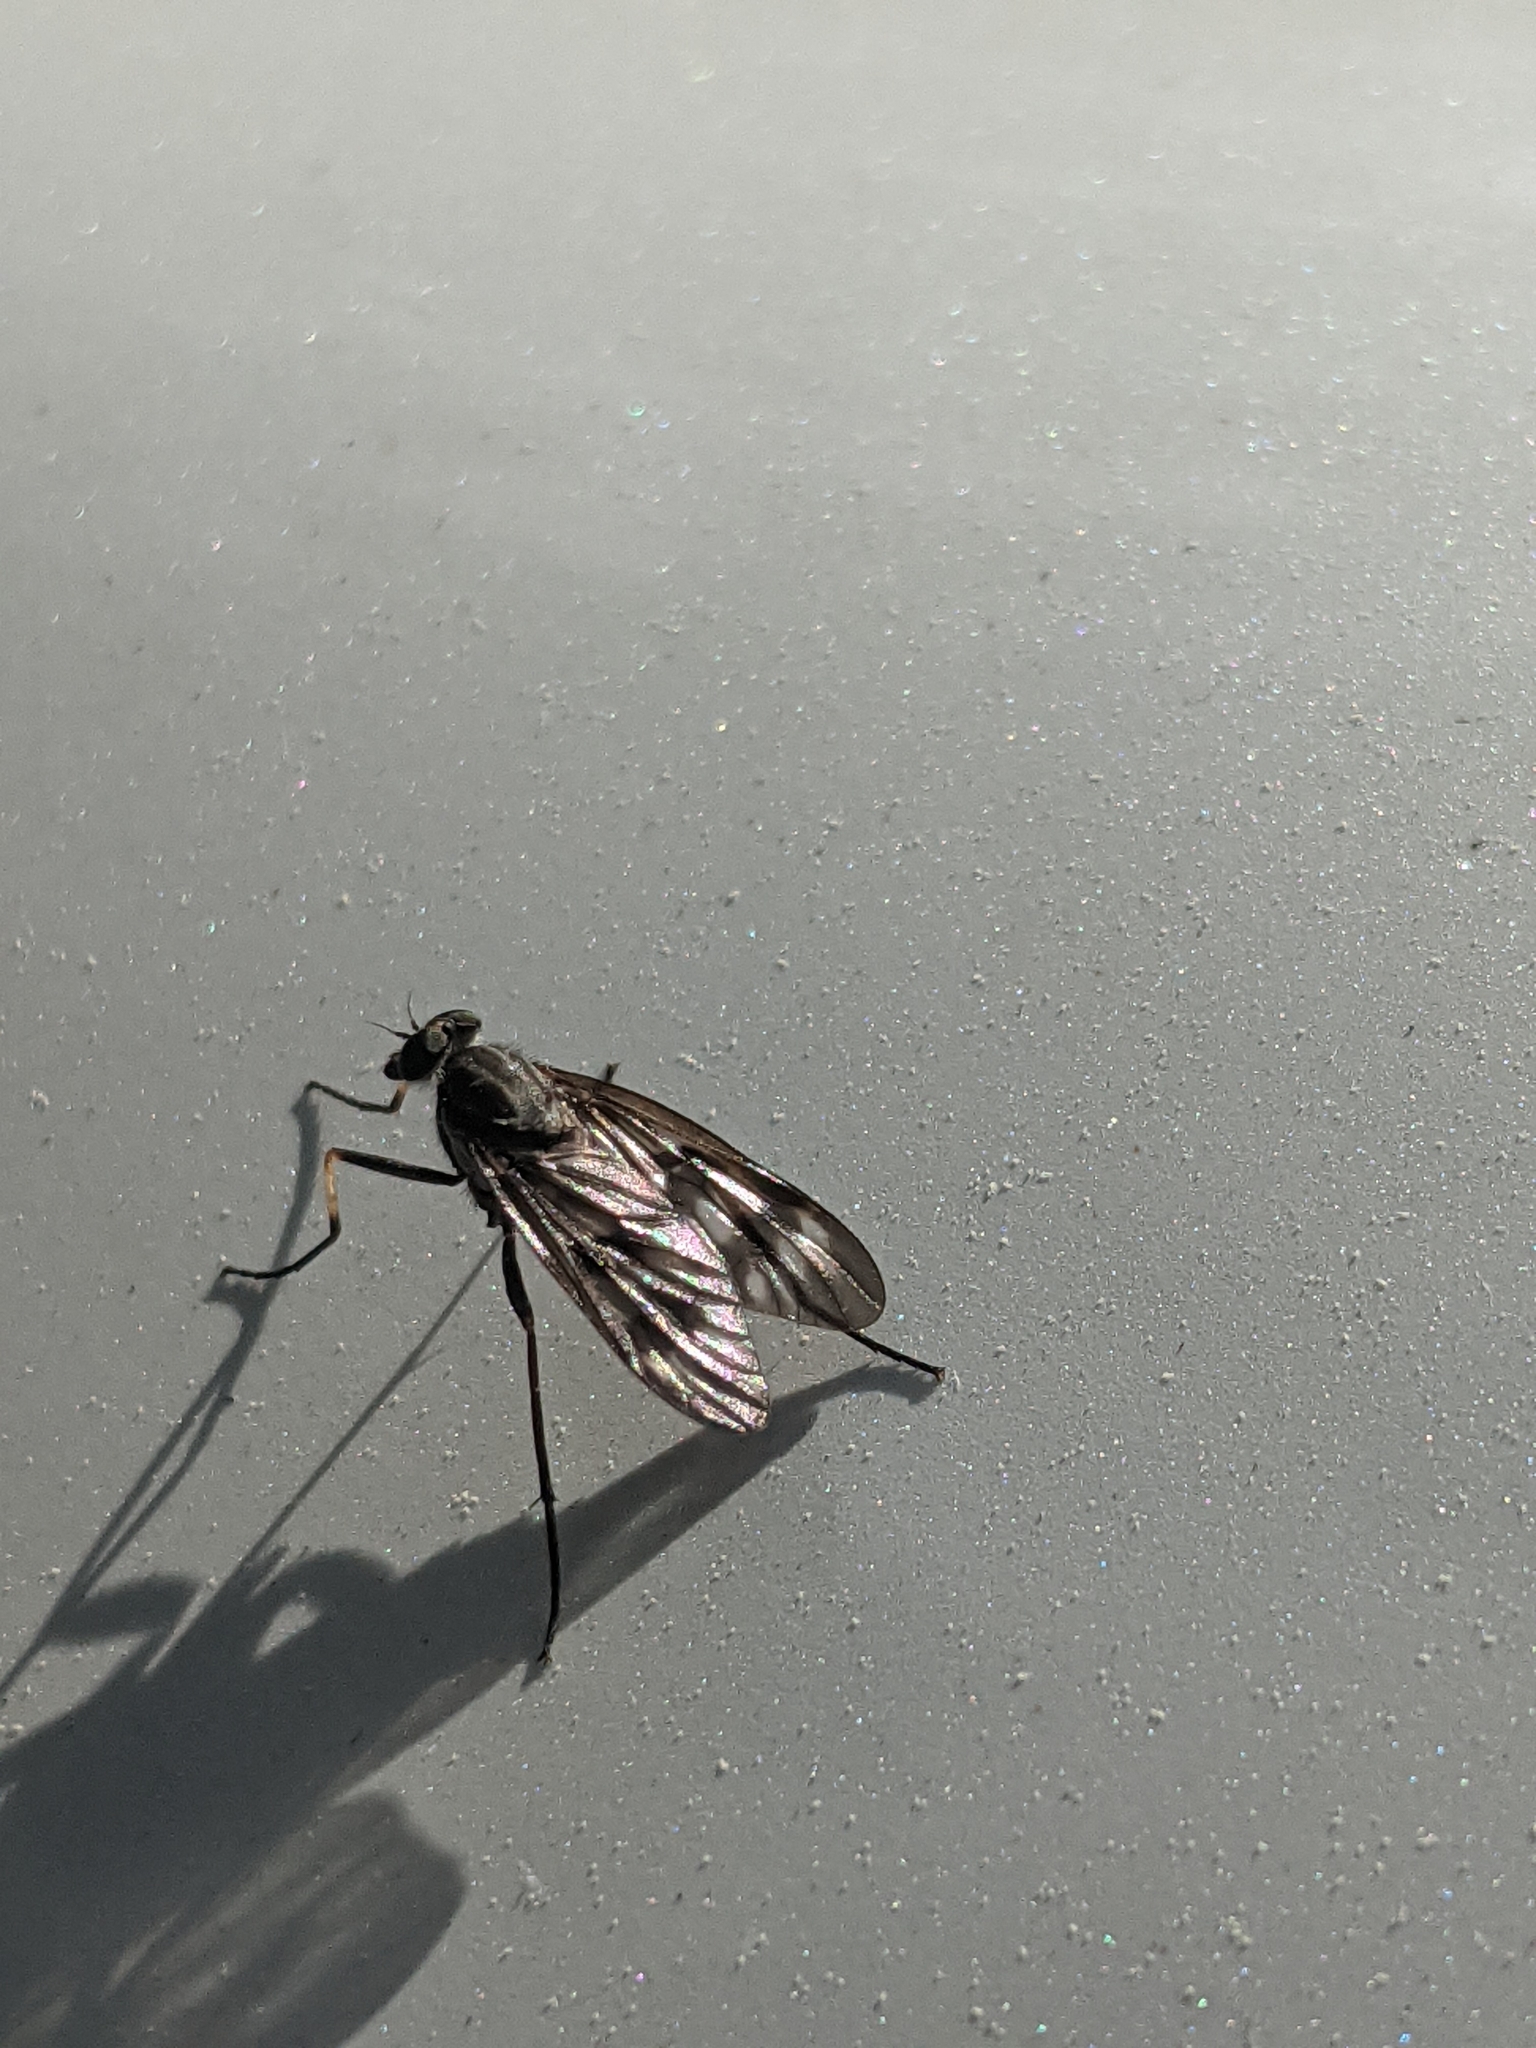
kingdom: Animalia
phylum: Arthropoda
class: Insecta
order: Diptera
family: Rhagionidae
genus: Rhagio
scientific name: Rhagio mystaceus
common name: Common snipe fly
